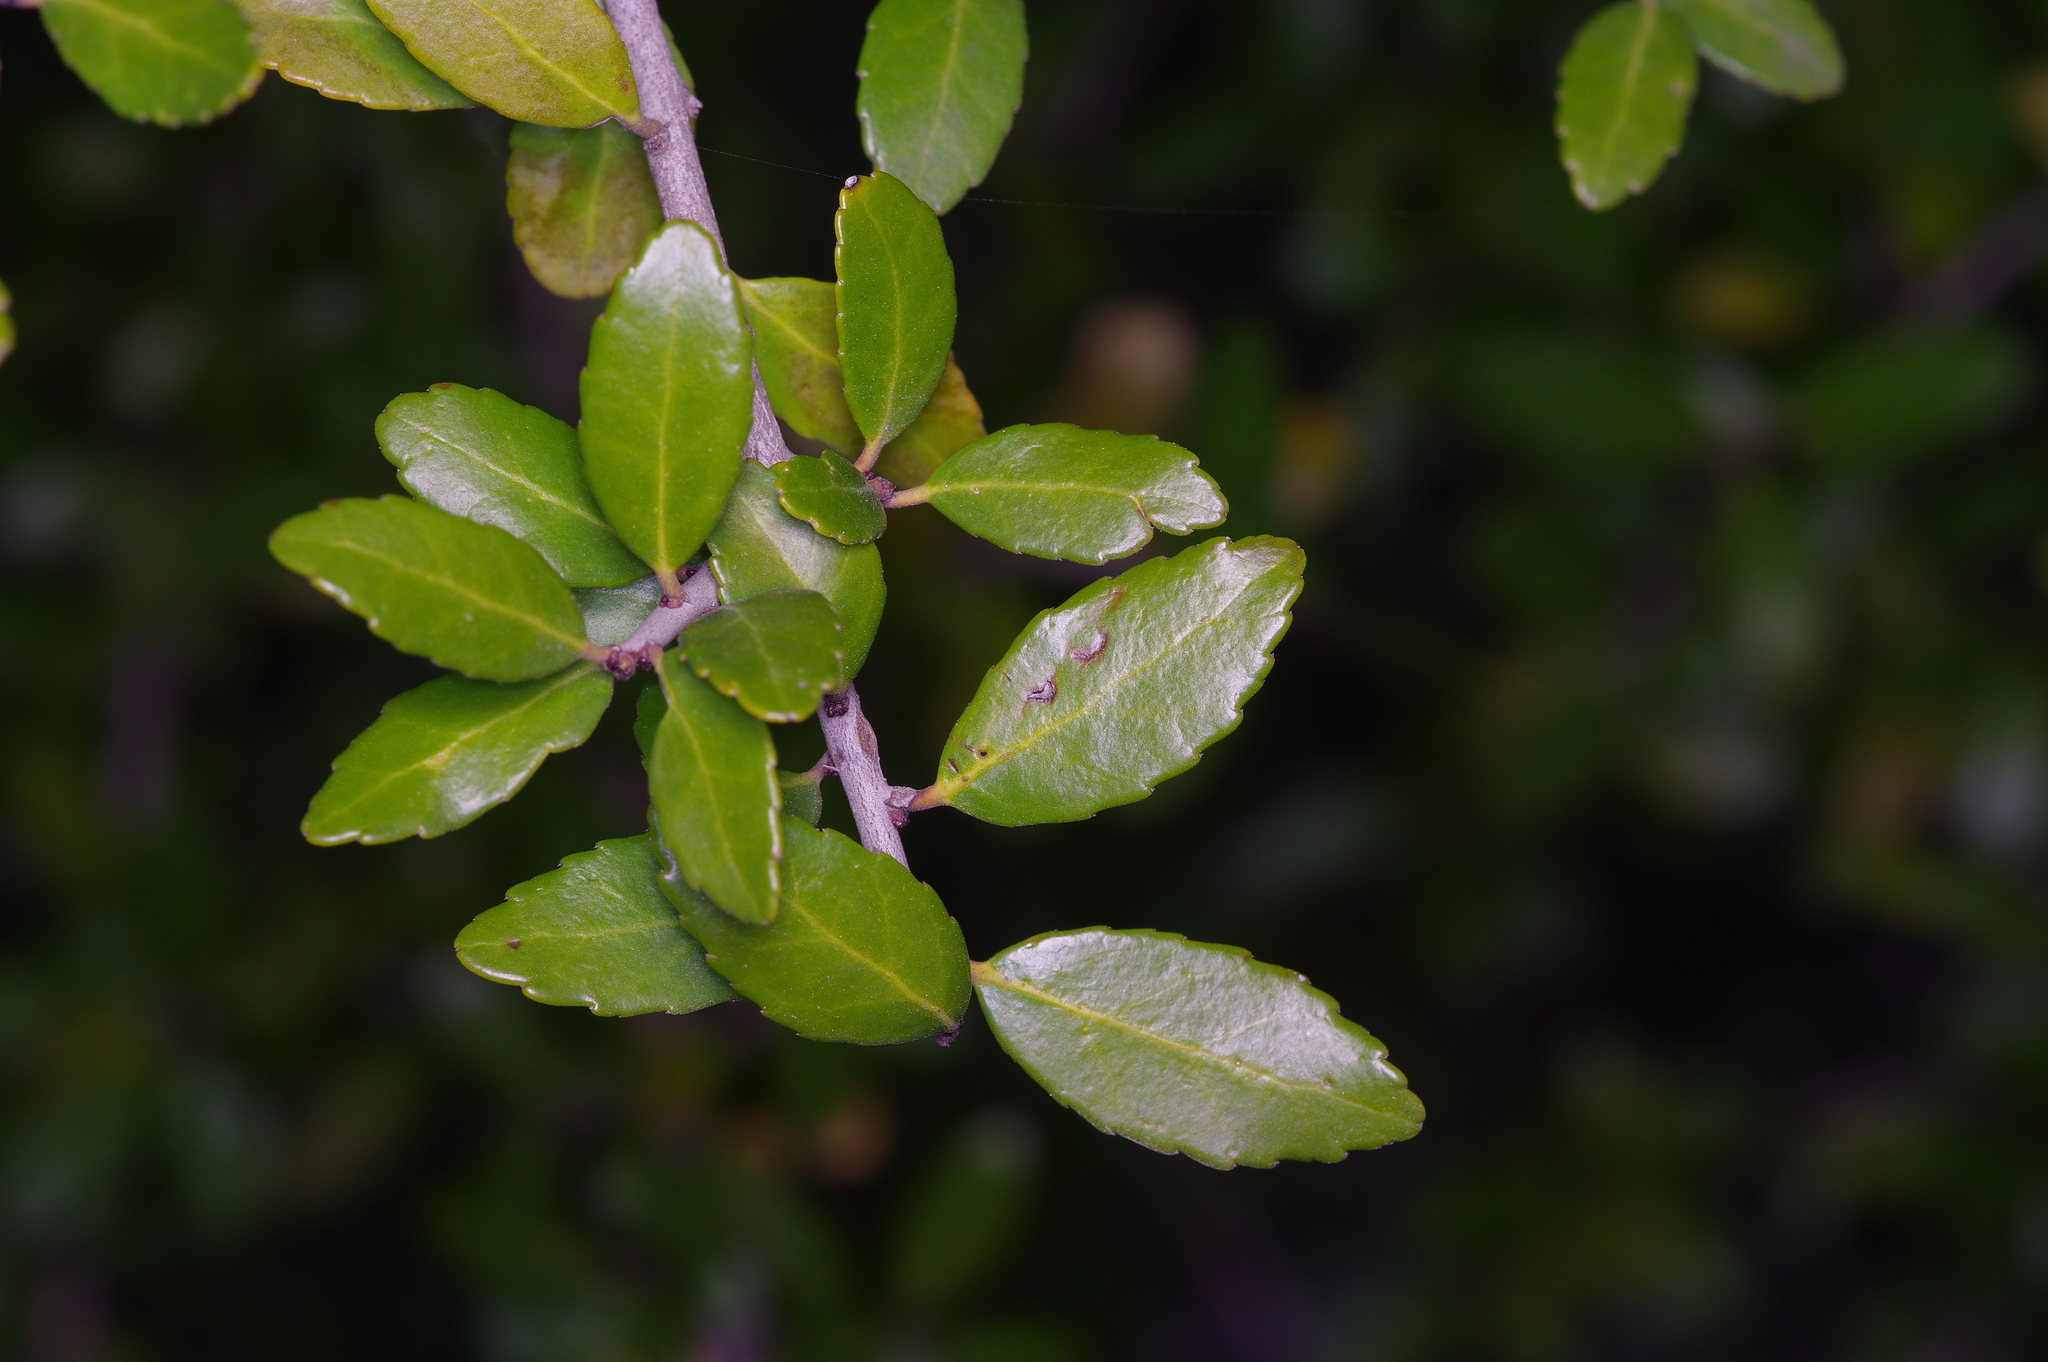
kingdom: Plantae
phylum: Tracheophyta
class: Magnoliopsida
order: Aquifoliales
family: Aquifoliaceae
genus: Ilex
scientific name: Ilex vomitoria
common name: Yaupon holly
